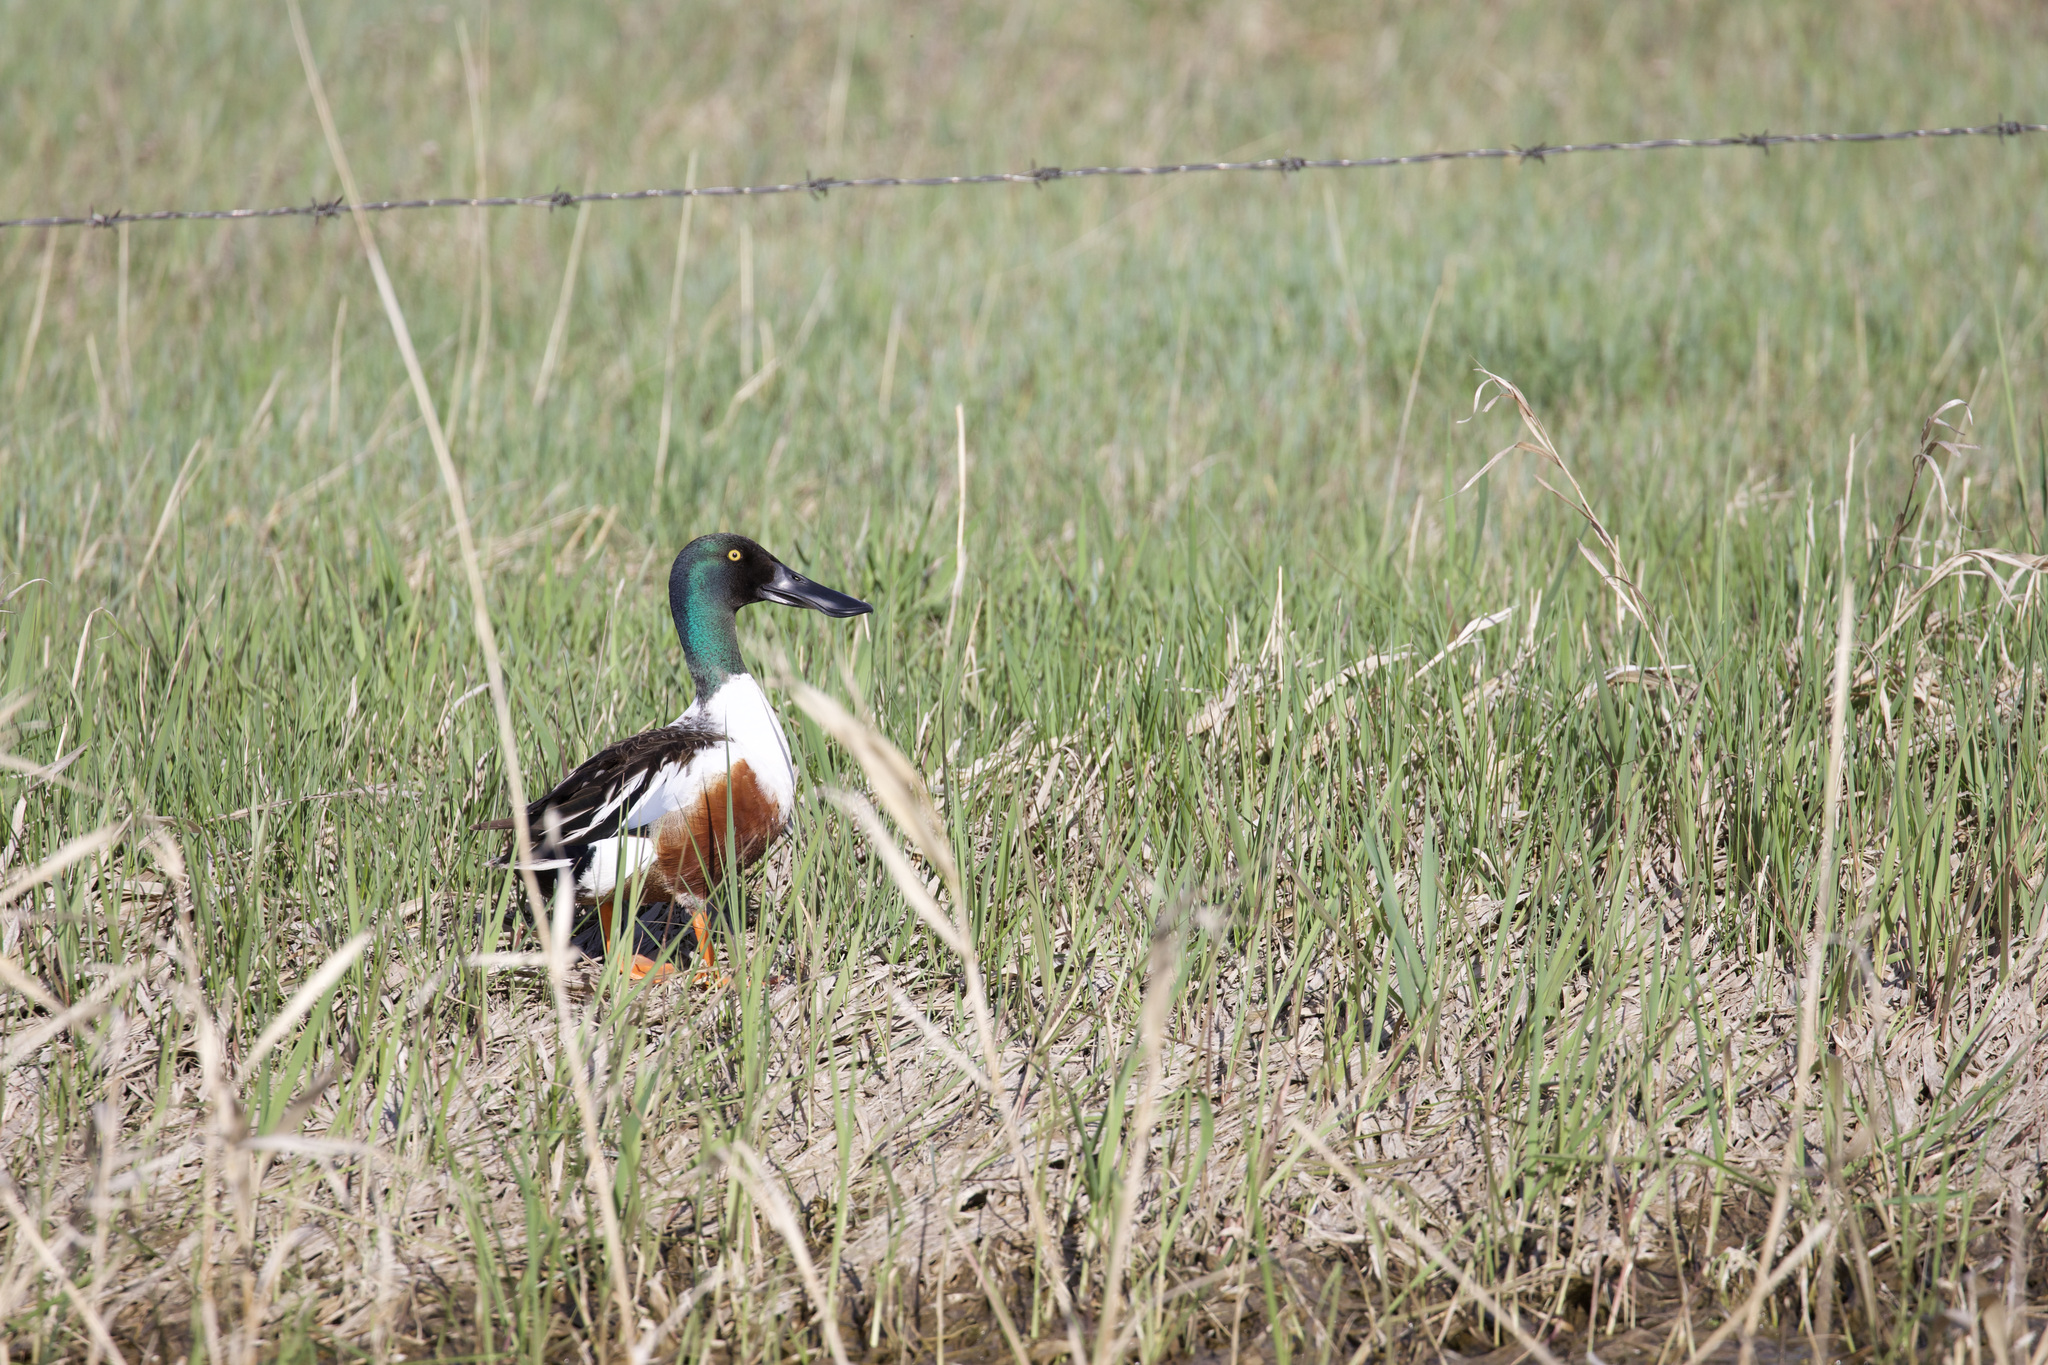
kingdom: Animalia
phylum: Chordata
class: Aves
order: Anseriformes
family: Anatidae
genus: Spatula
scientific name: Spatula clypeata
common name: Northern shoveler
